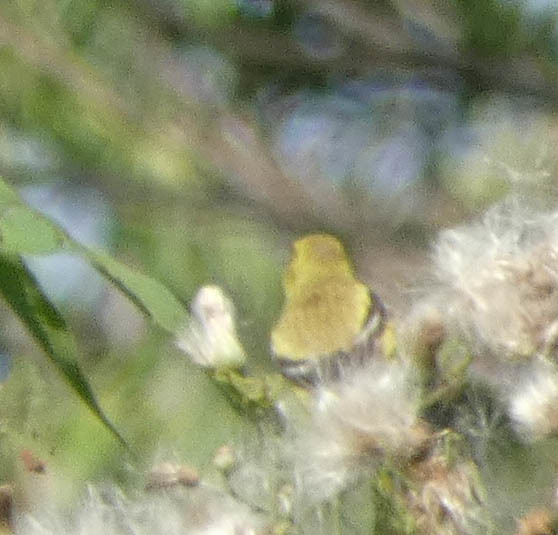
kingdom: Animalia
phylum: Chordata
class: Aves
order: Passeriformes
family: Fringillidae
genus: Spinus
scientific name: Spinus tristis
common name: American goldfinch
